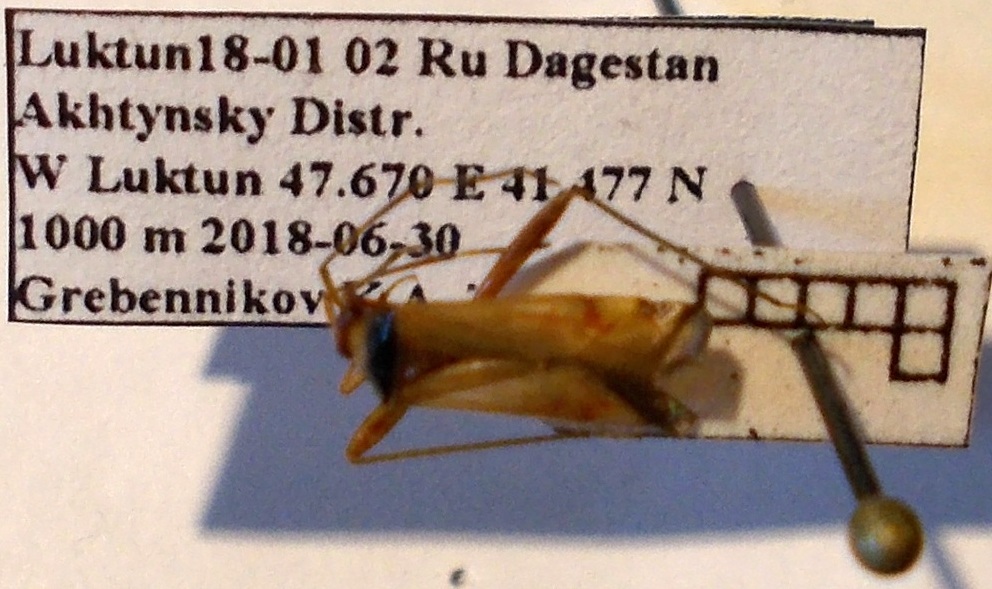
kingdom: Animalia
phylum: Arthropoda
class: Insecta
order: Hemiptera
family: Miridae
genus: Adelphocoris
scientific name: Adelphocoris vandalicus
